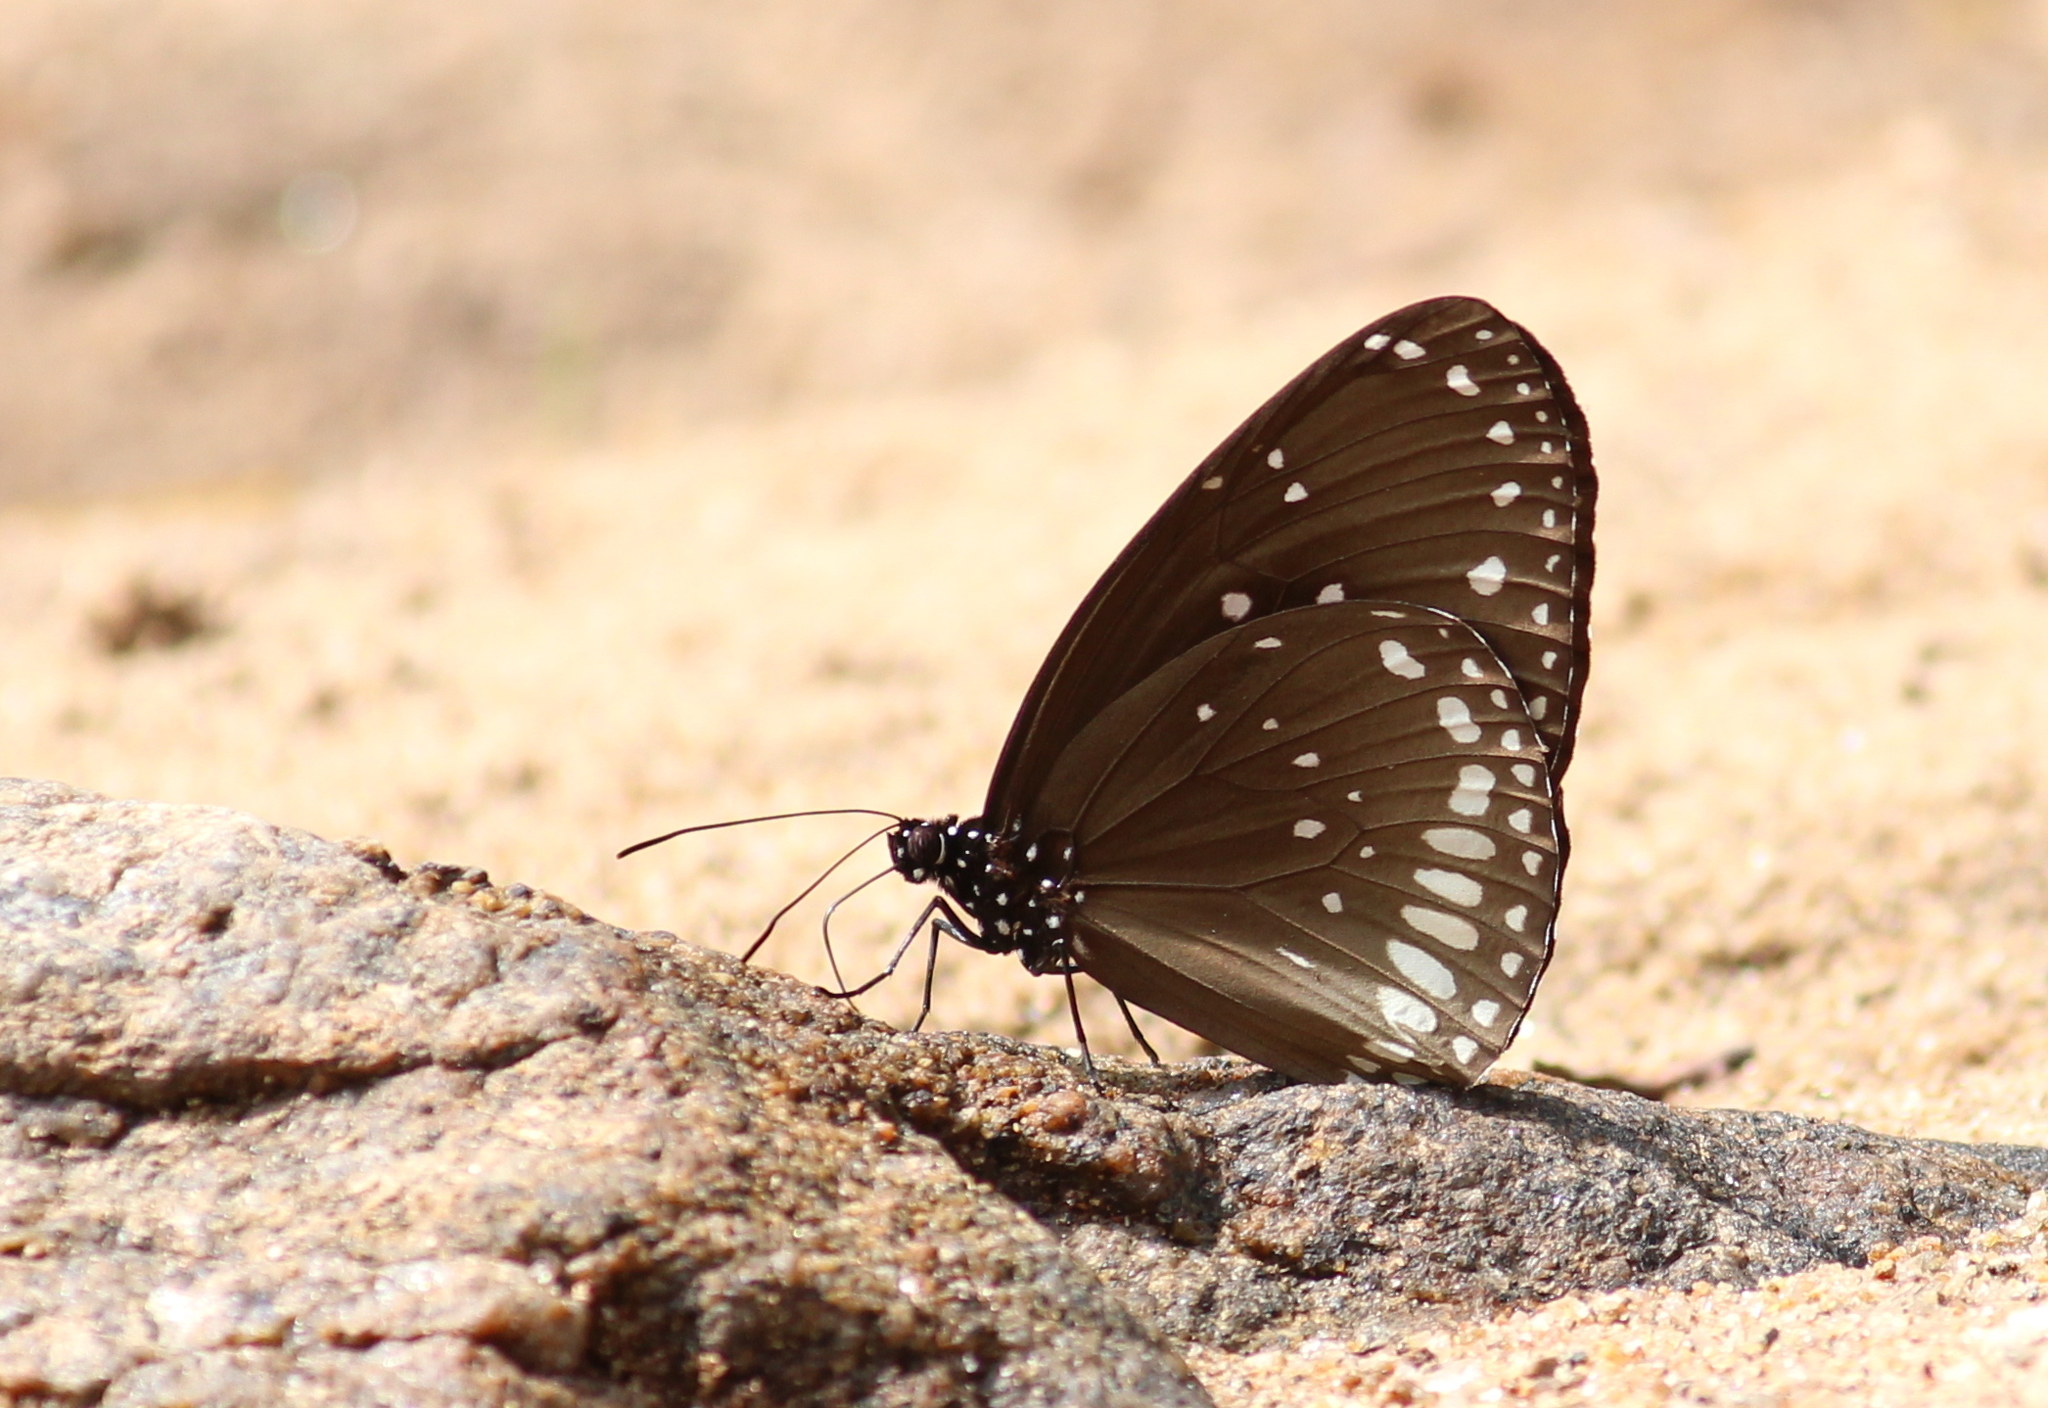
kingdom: Animalia
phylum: Arthropoda
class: Insecta
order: Lepidoptera
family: Nymphalidae
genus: Euploea
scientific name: Euploea sylvester
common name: Double-branded crow butterfly
